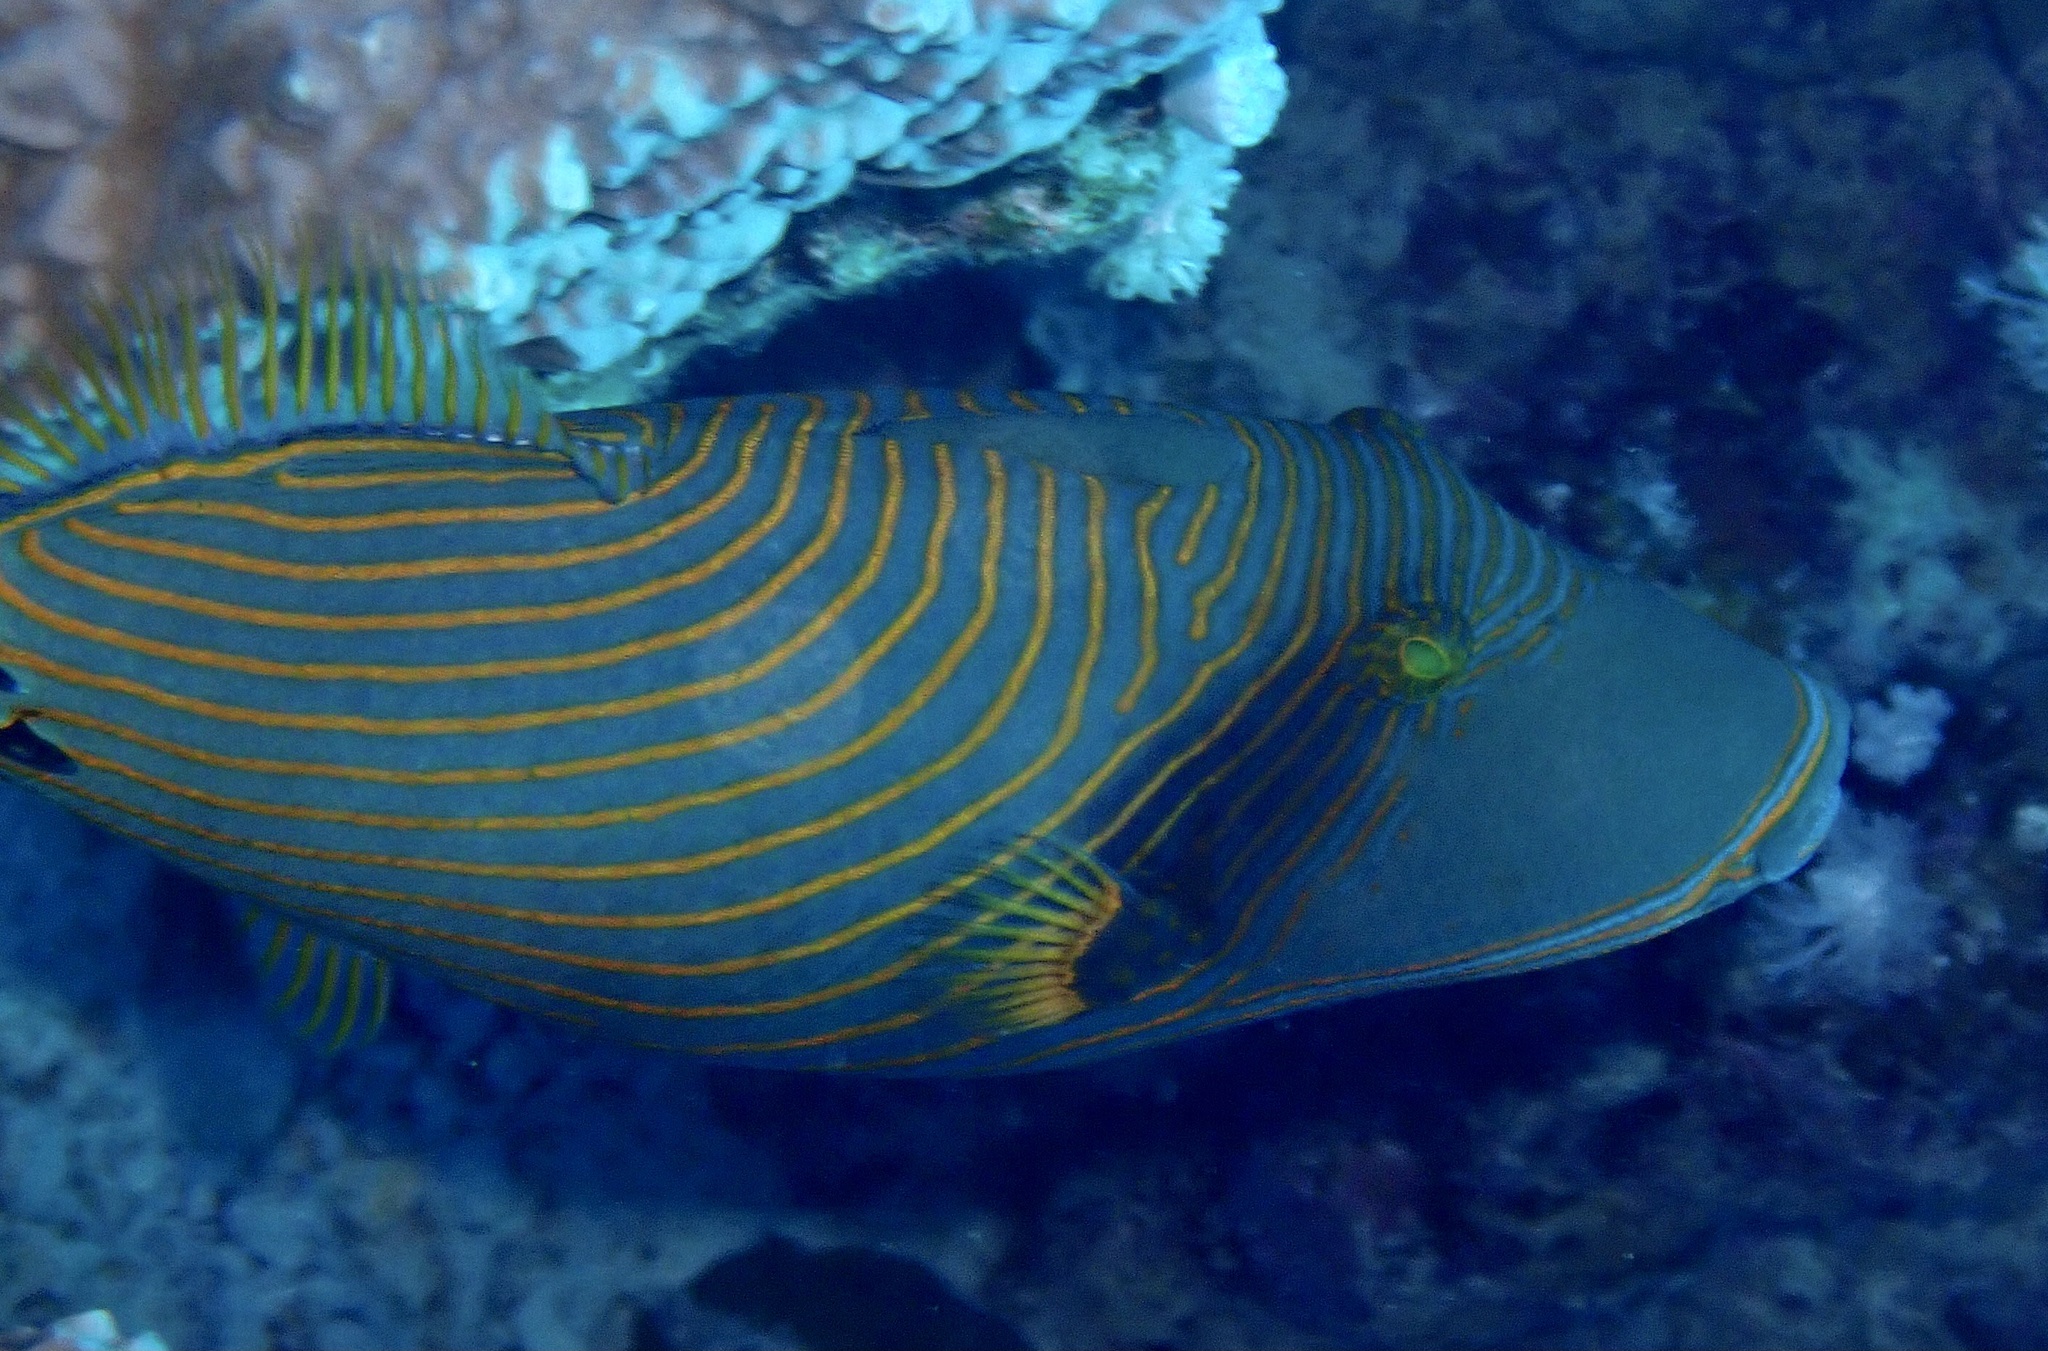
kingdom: Animalia
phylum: Chordata
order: Tetraodontiformes
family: Balistidae
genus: Balistapus
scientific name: Balistapus undulatus
